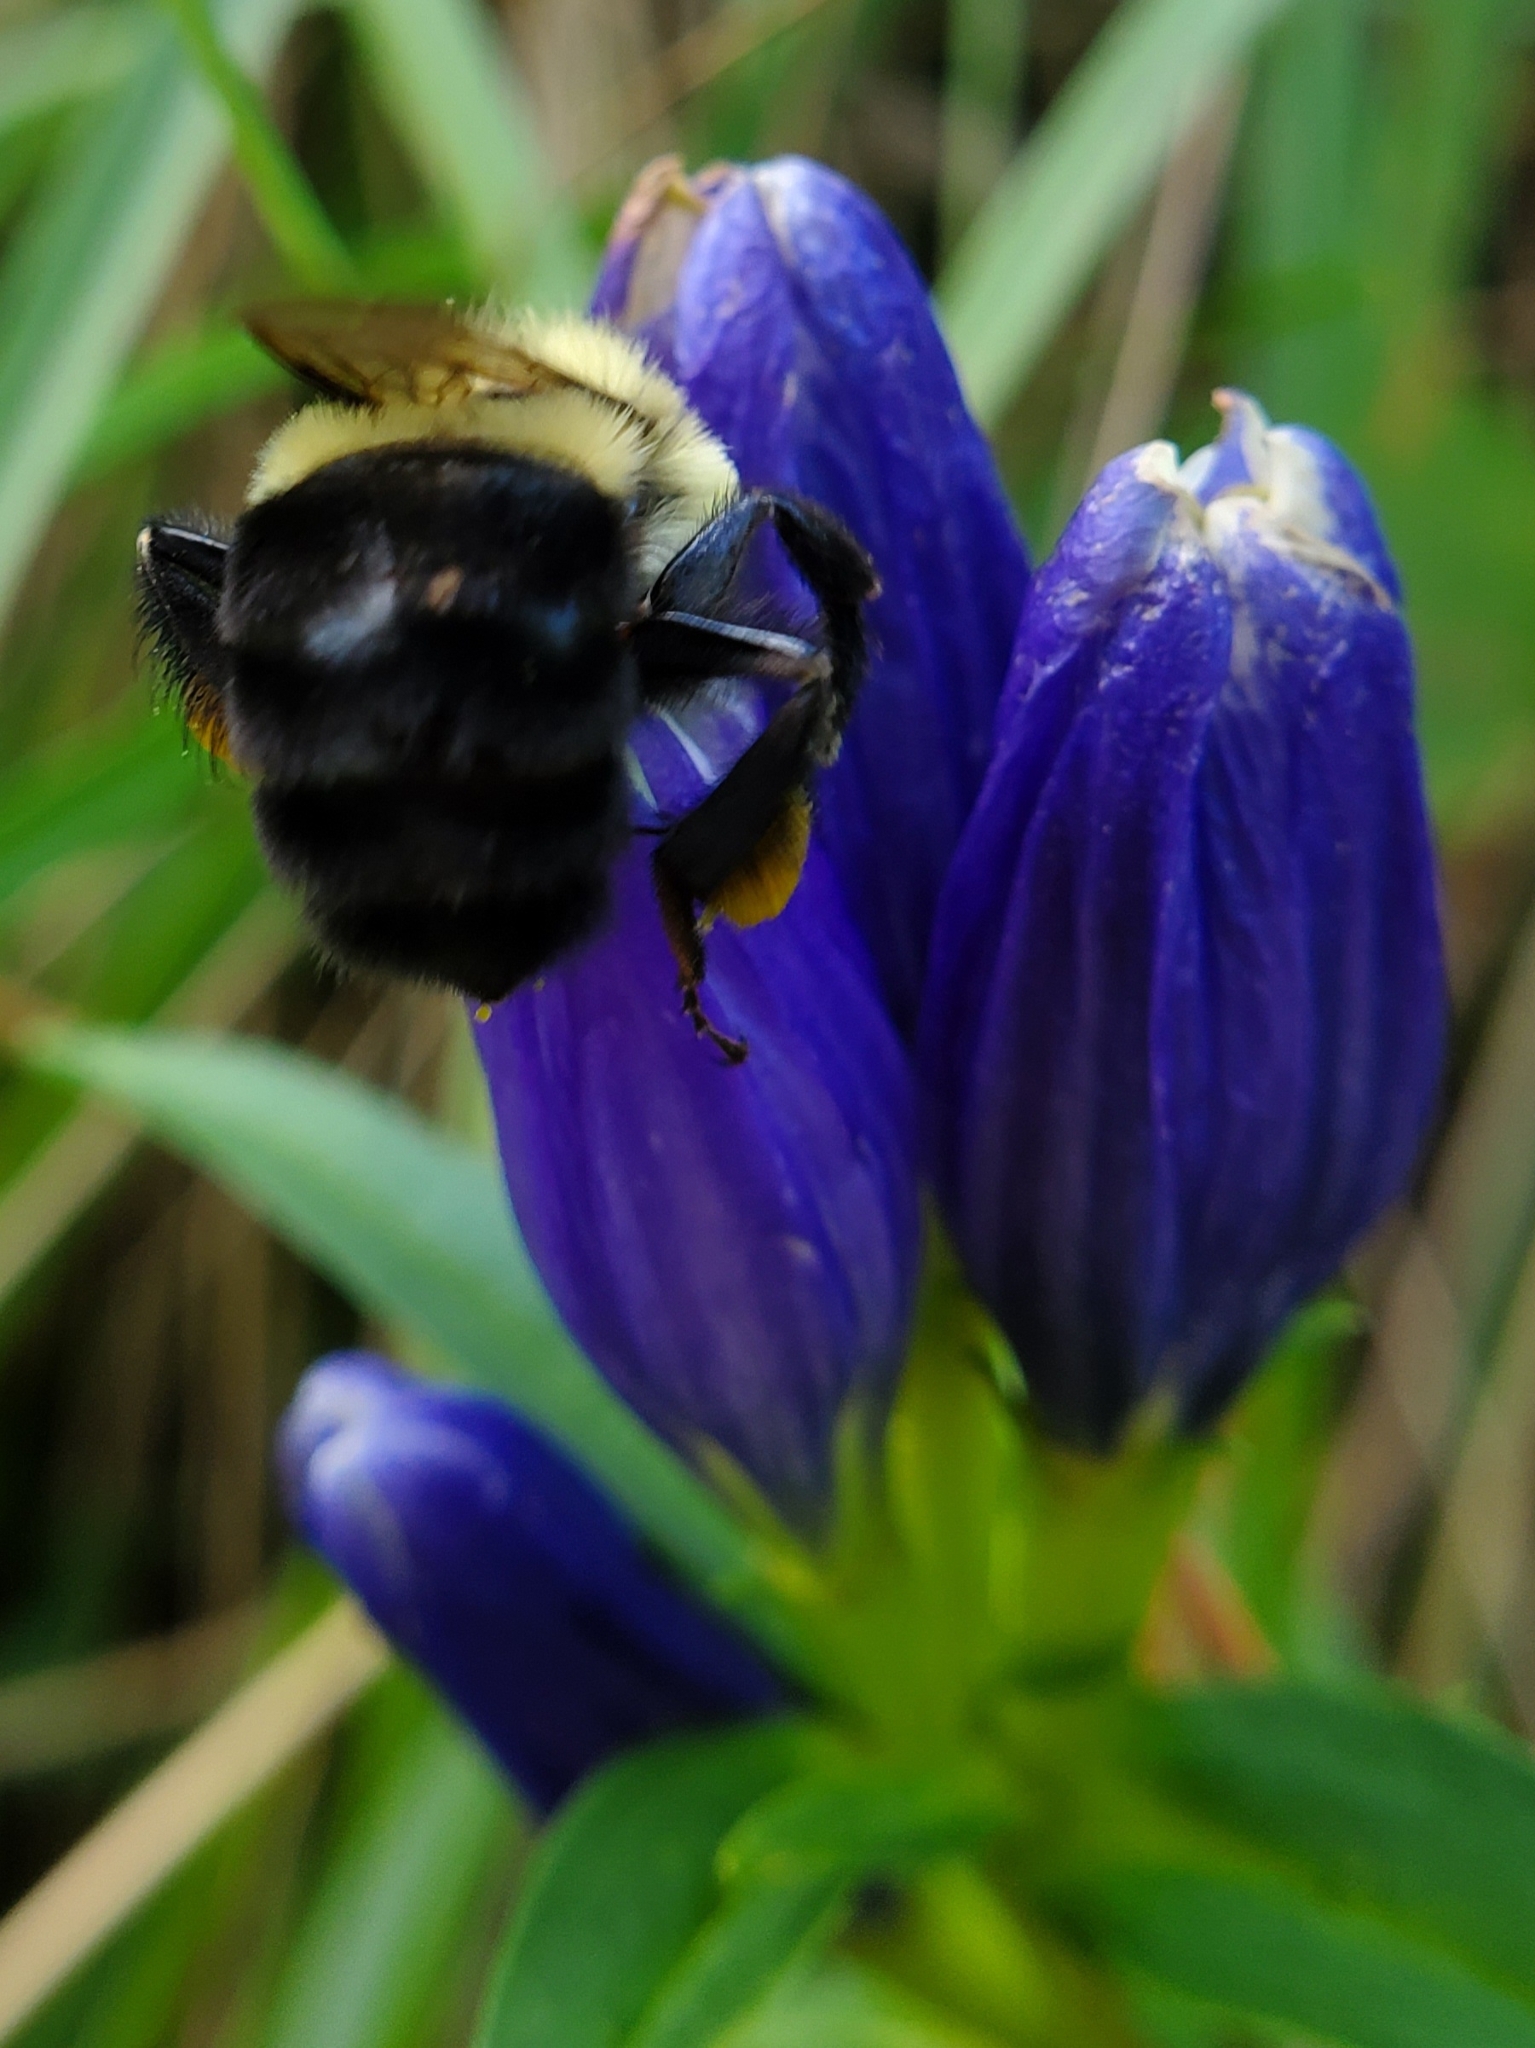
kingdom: Animalia
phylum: Arthropoda
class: Insecta
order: Hymenoptera
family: Apidae
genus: Bombus
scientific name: Bombus impatiens
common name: Common eastern bumble bee
